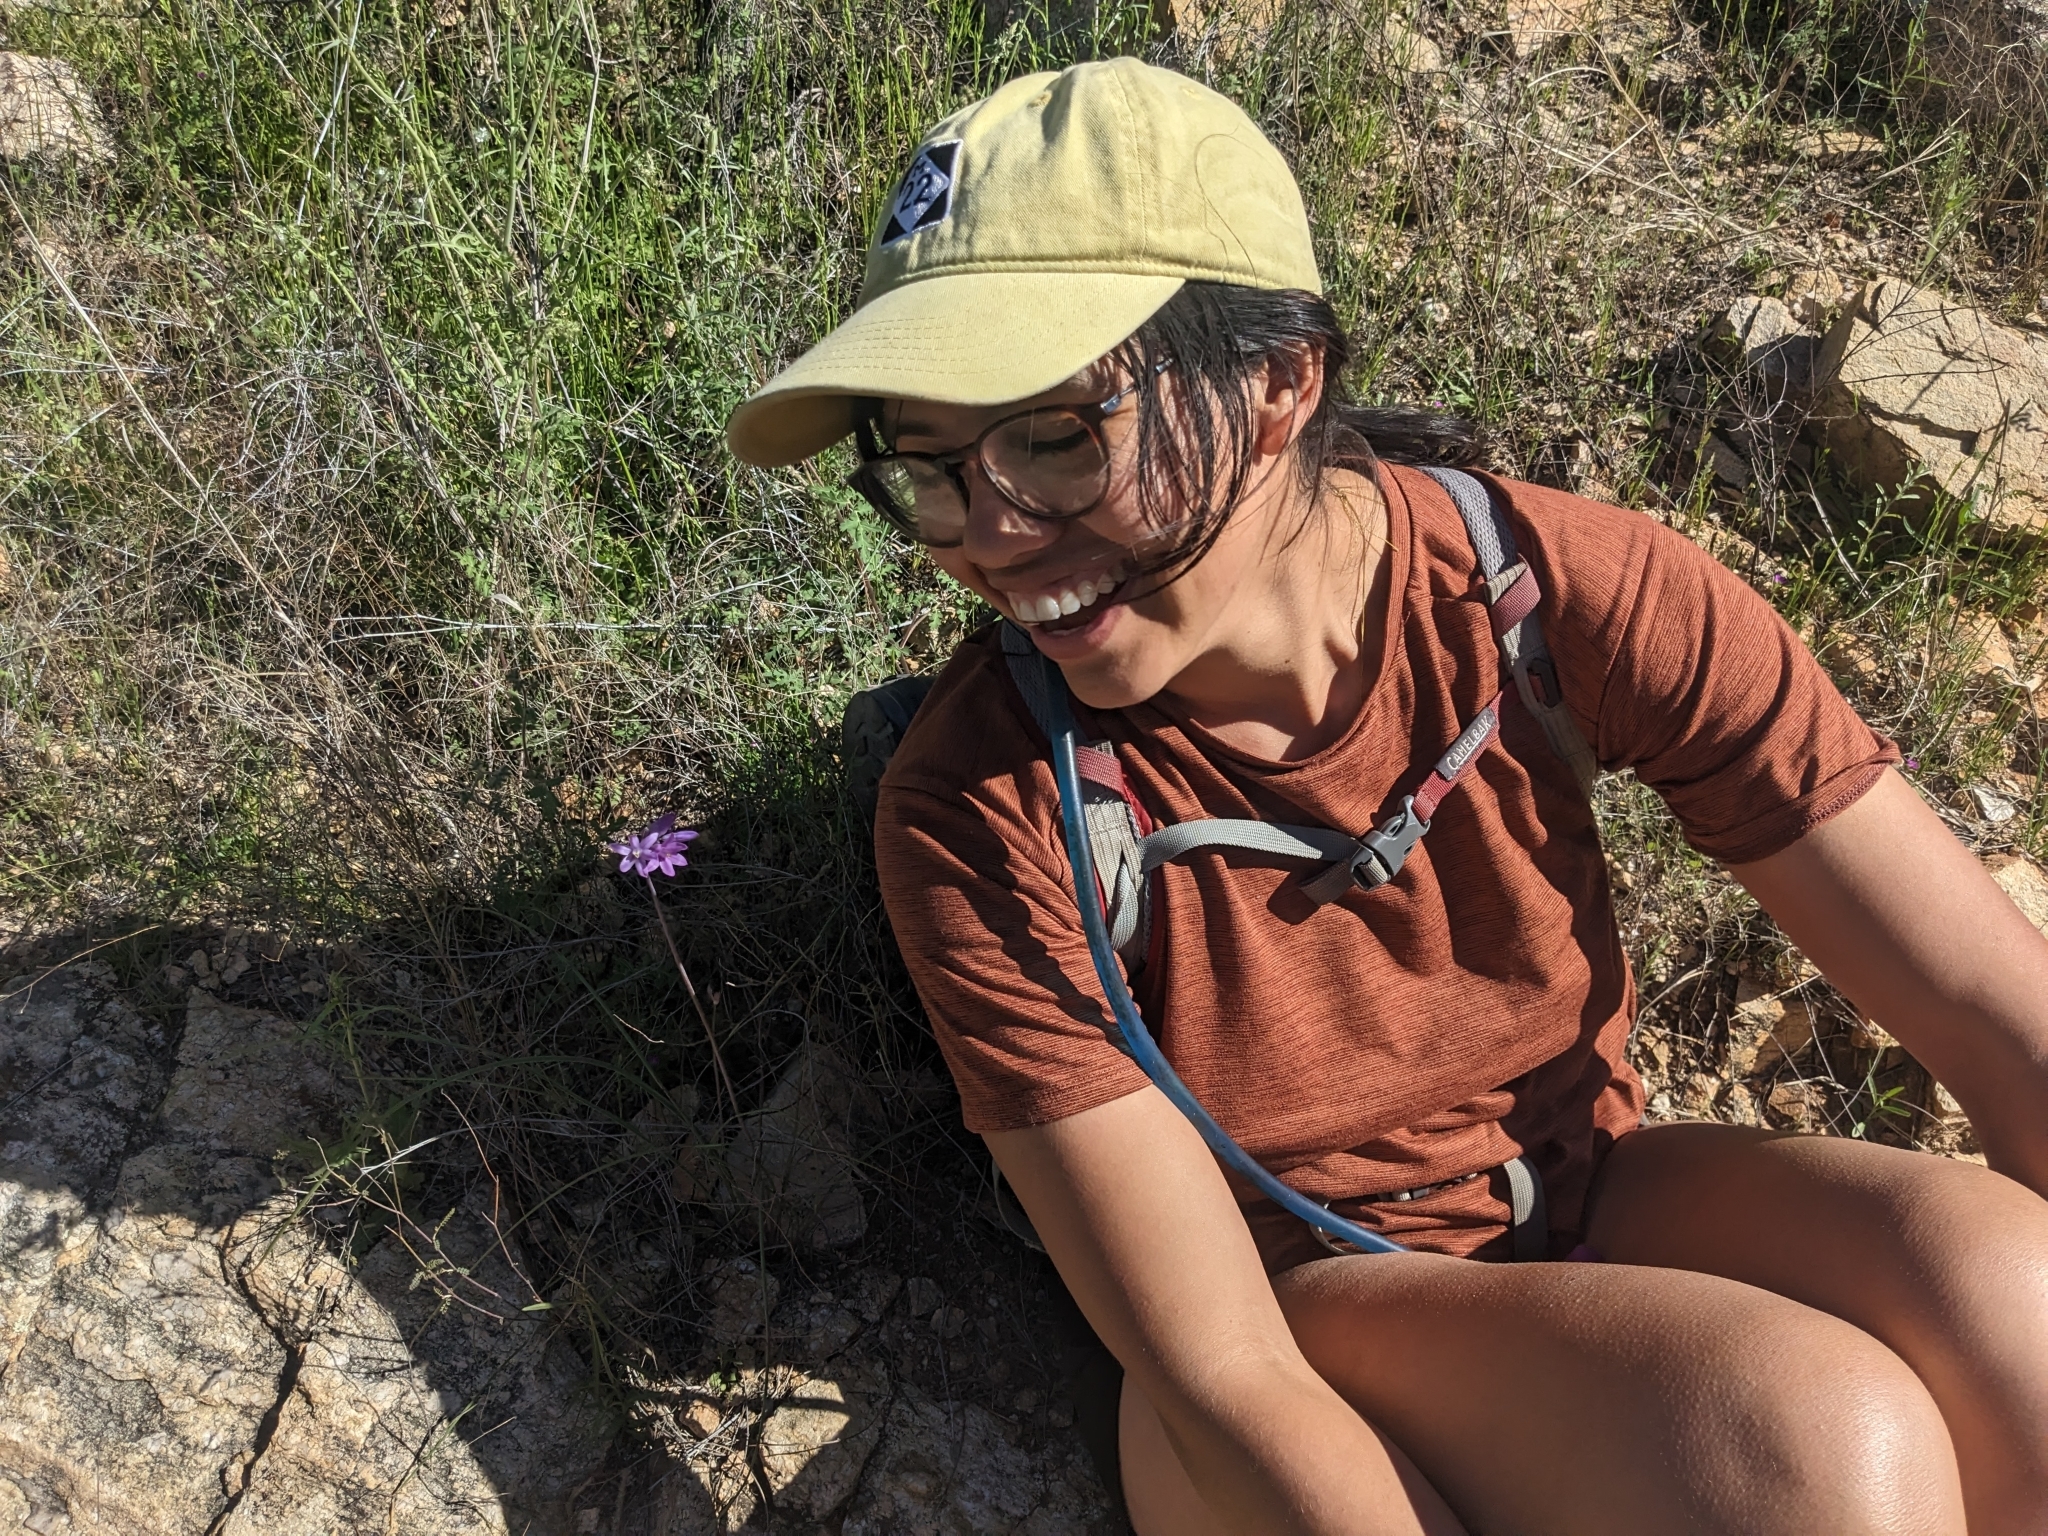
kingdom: Plantae
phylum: Tracheophyta
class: Liliopsida
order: Asparagales
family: Asparagaceae
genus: Dipterostemon
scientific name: Dipterostemon capitatus
